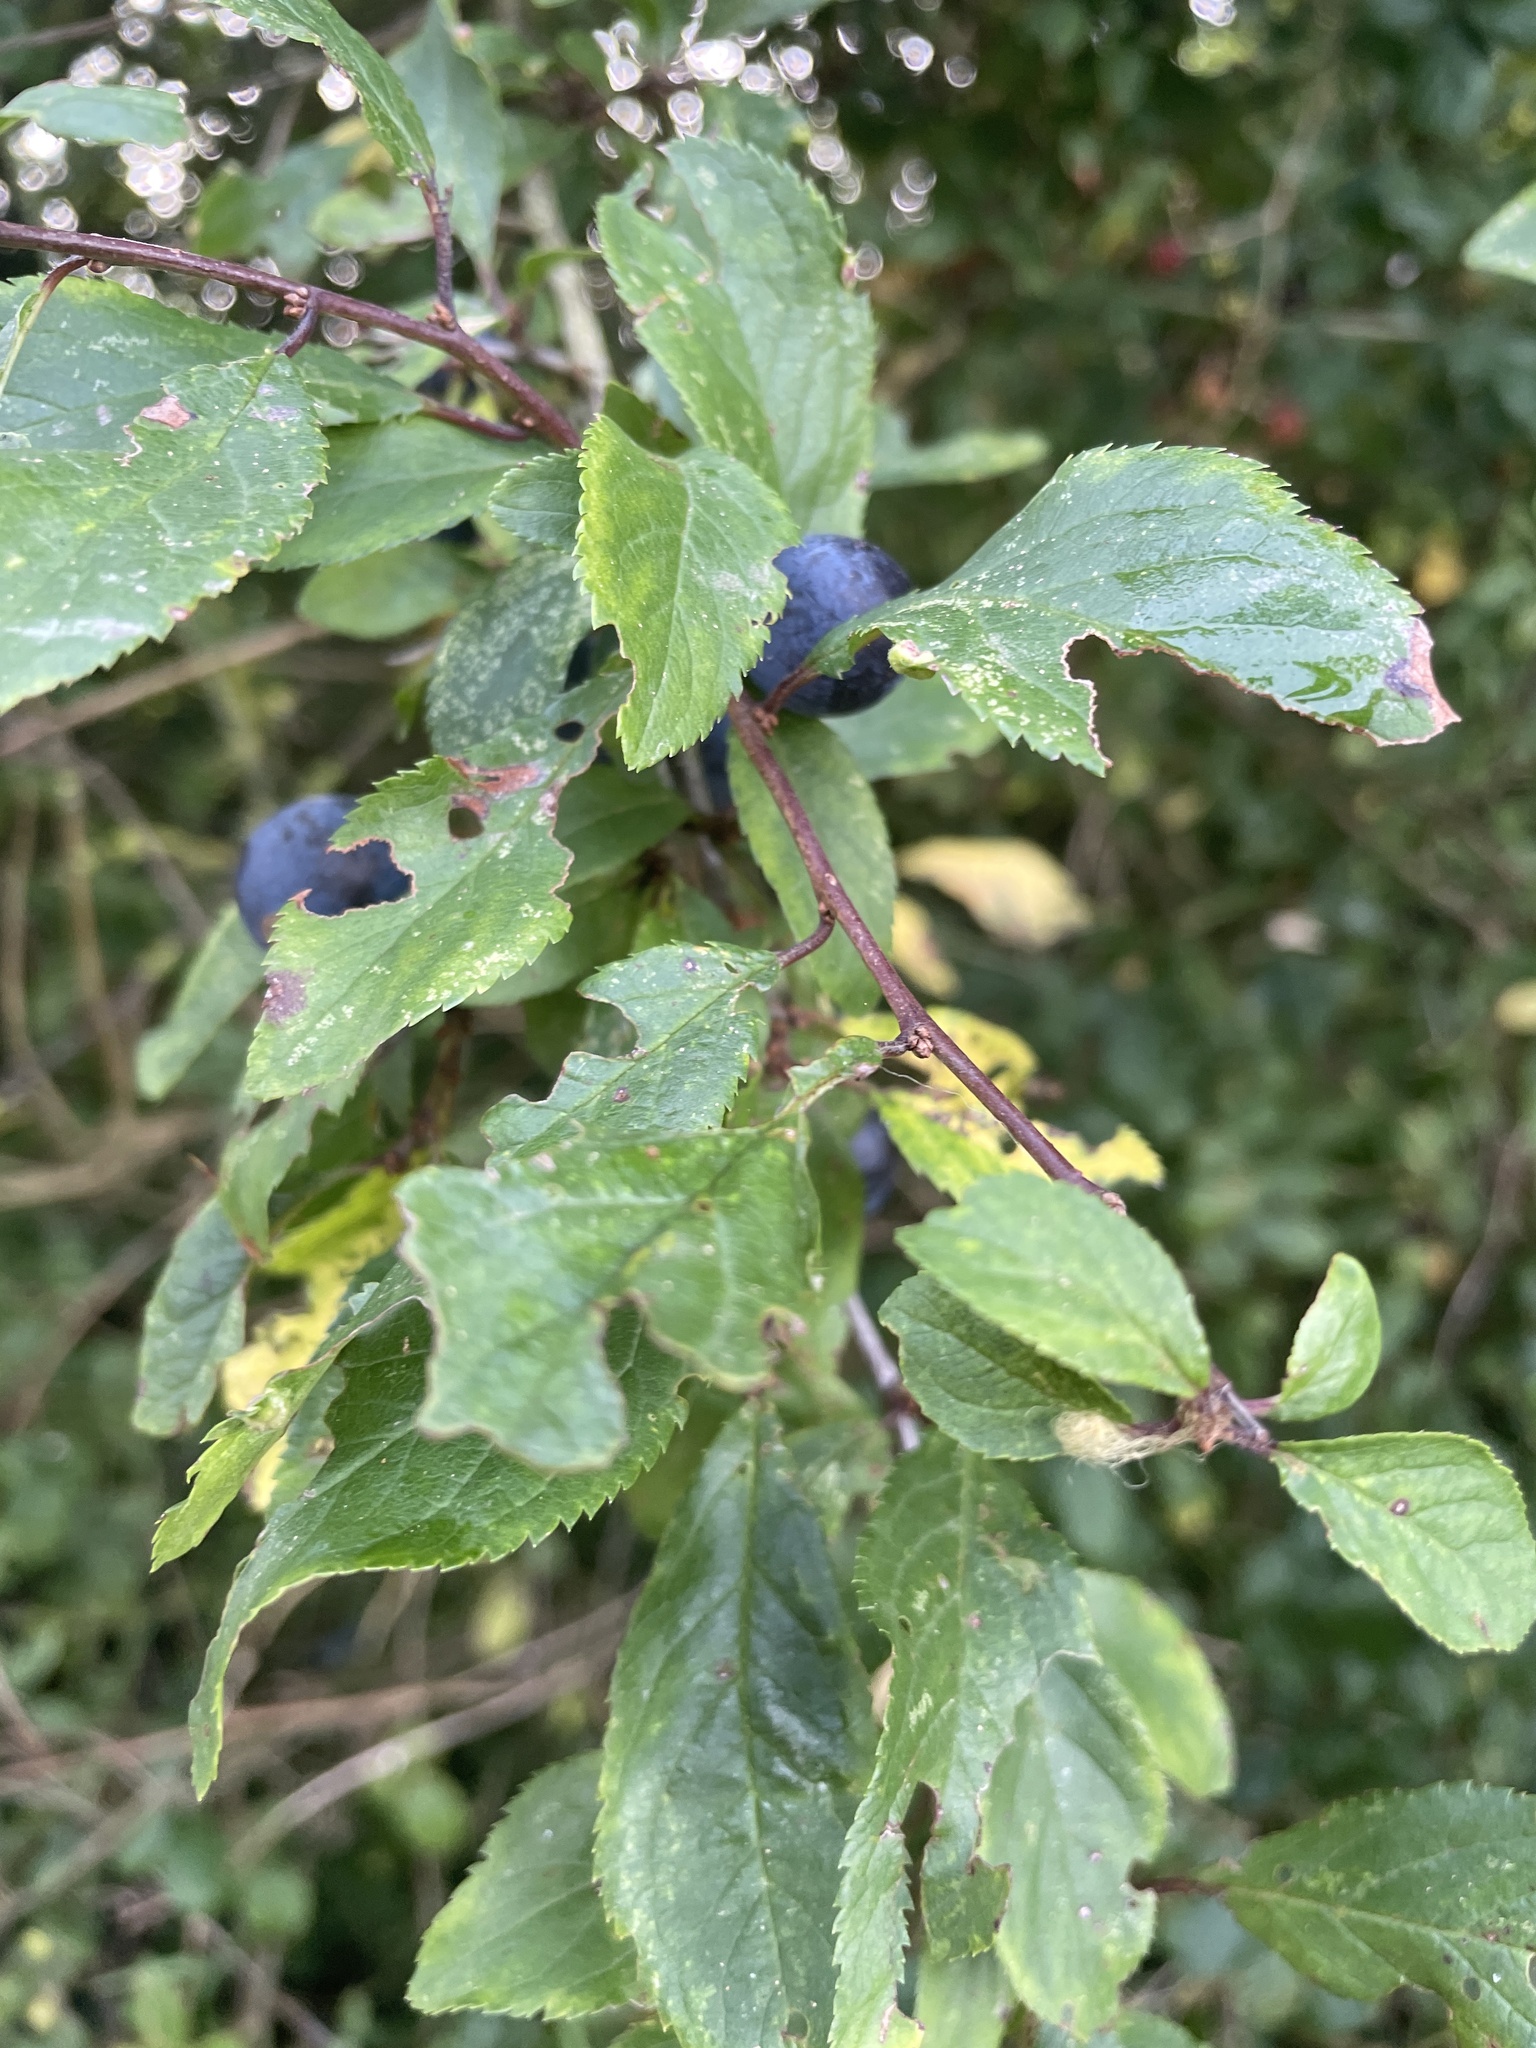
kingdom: Plantae
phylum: Tracheophyta
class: Magnoliopsida
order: Rosales
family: Rosaceae
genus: Prunus
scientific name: Prunus spinosa
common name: Blackthorn
